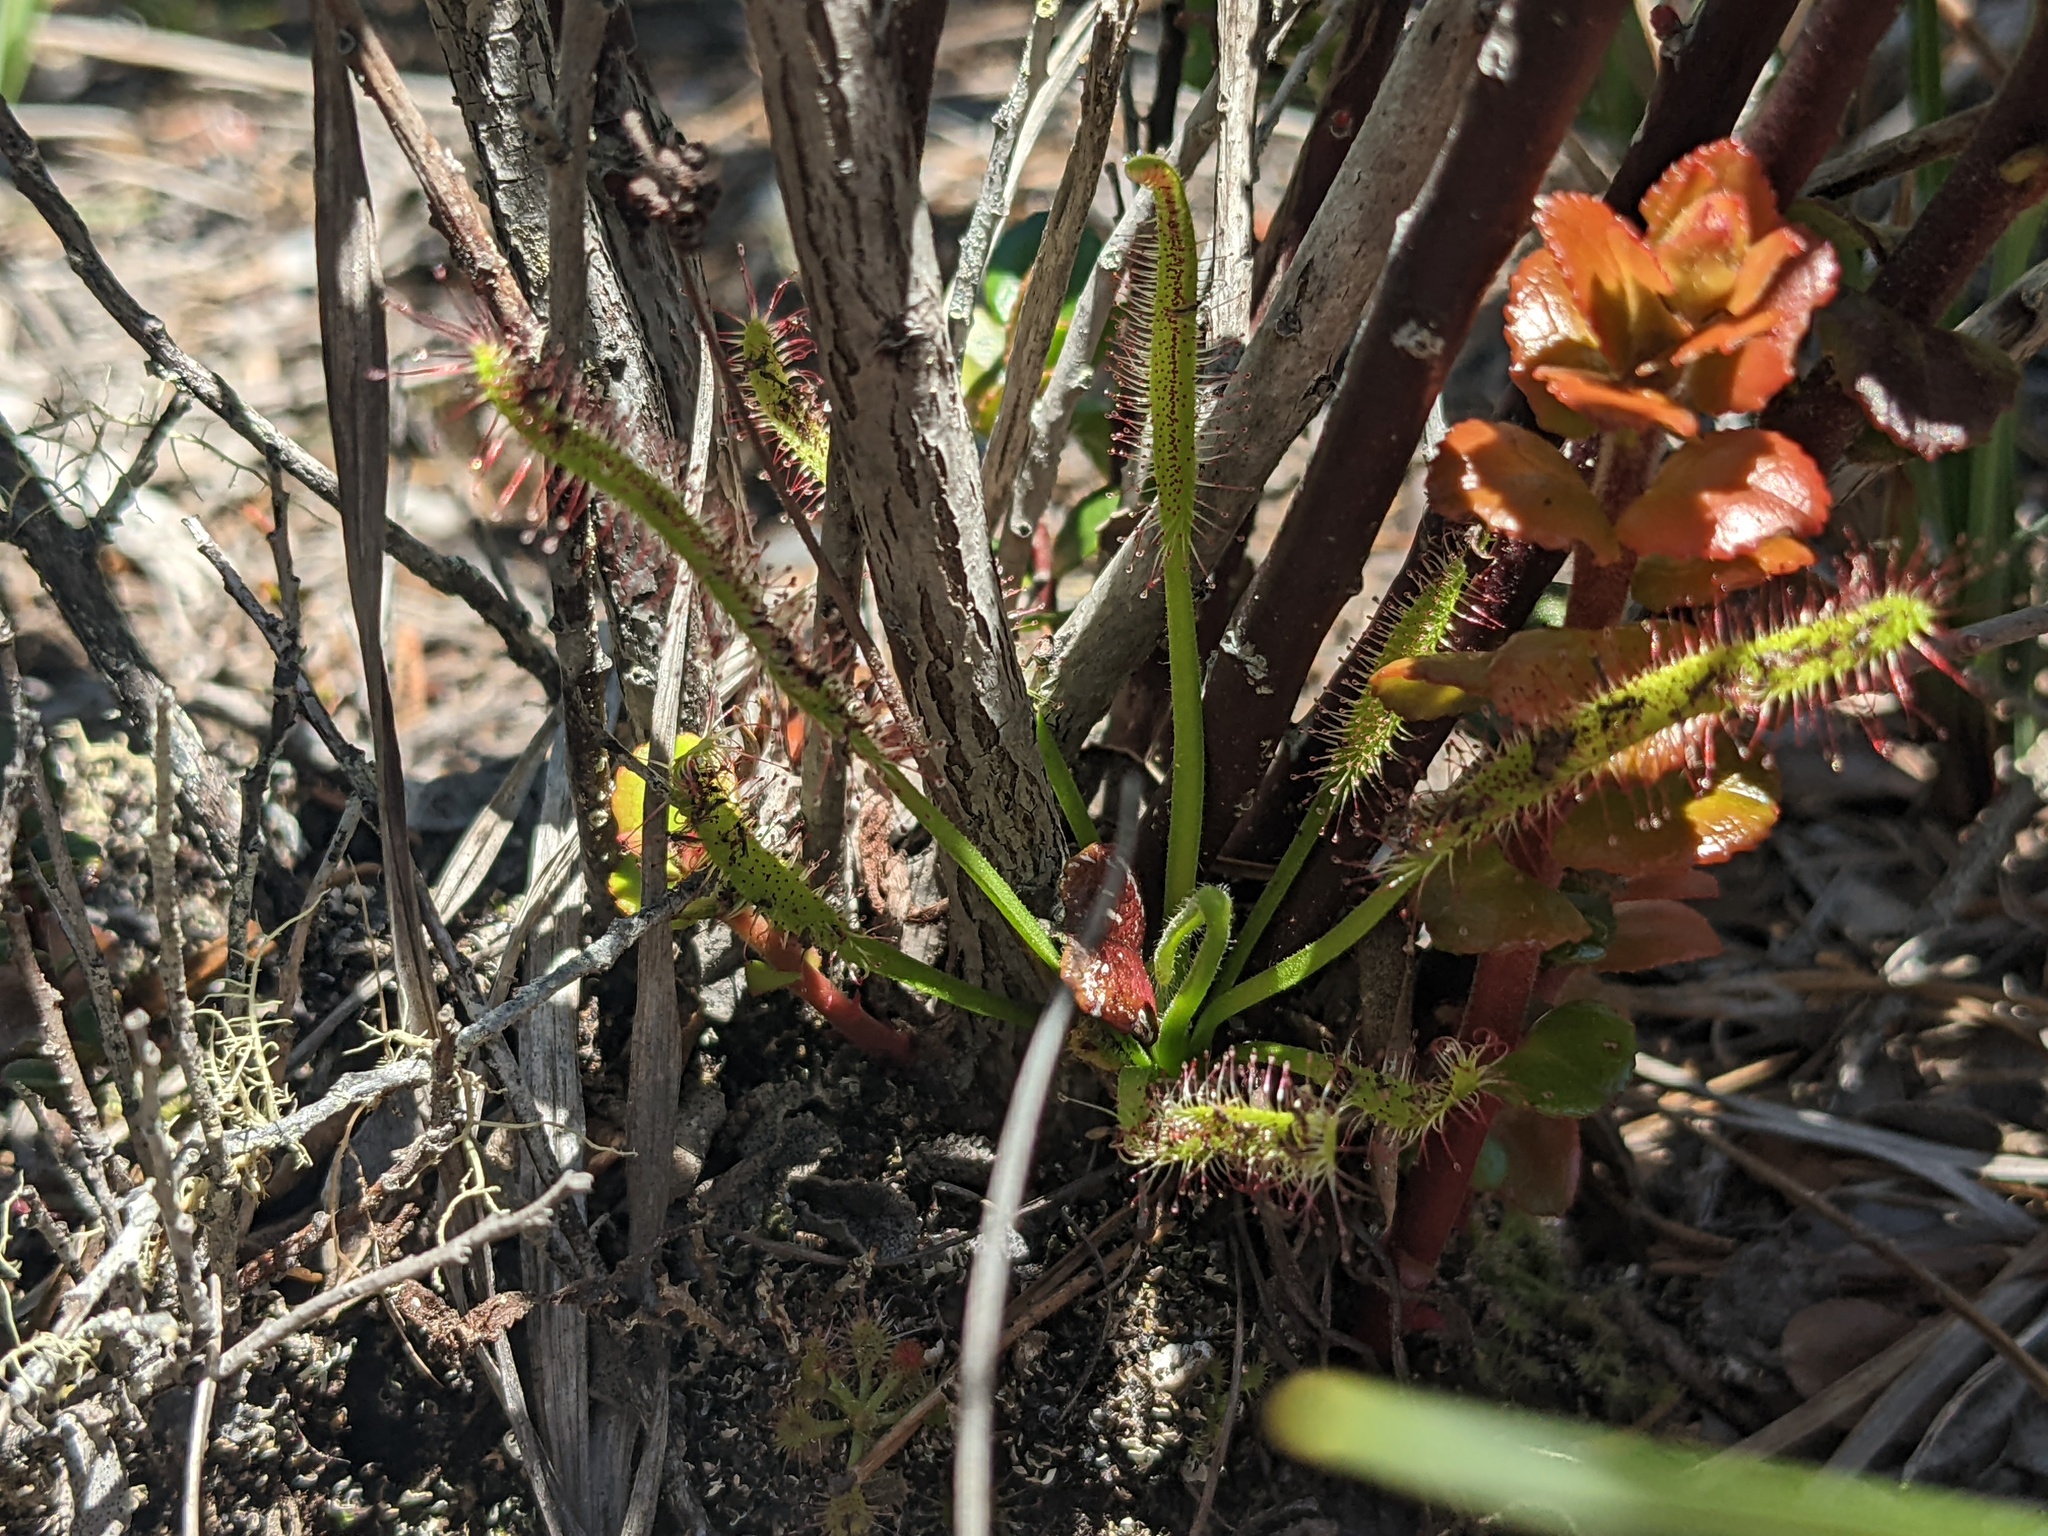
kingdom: Plantae
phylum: Tracheophyta
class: Magnoliopsida
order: Caryophyllales
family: Droseraceae
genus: Drosera
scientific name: Drosera capensis
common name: Cape sundew
